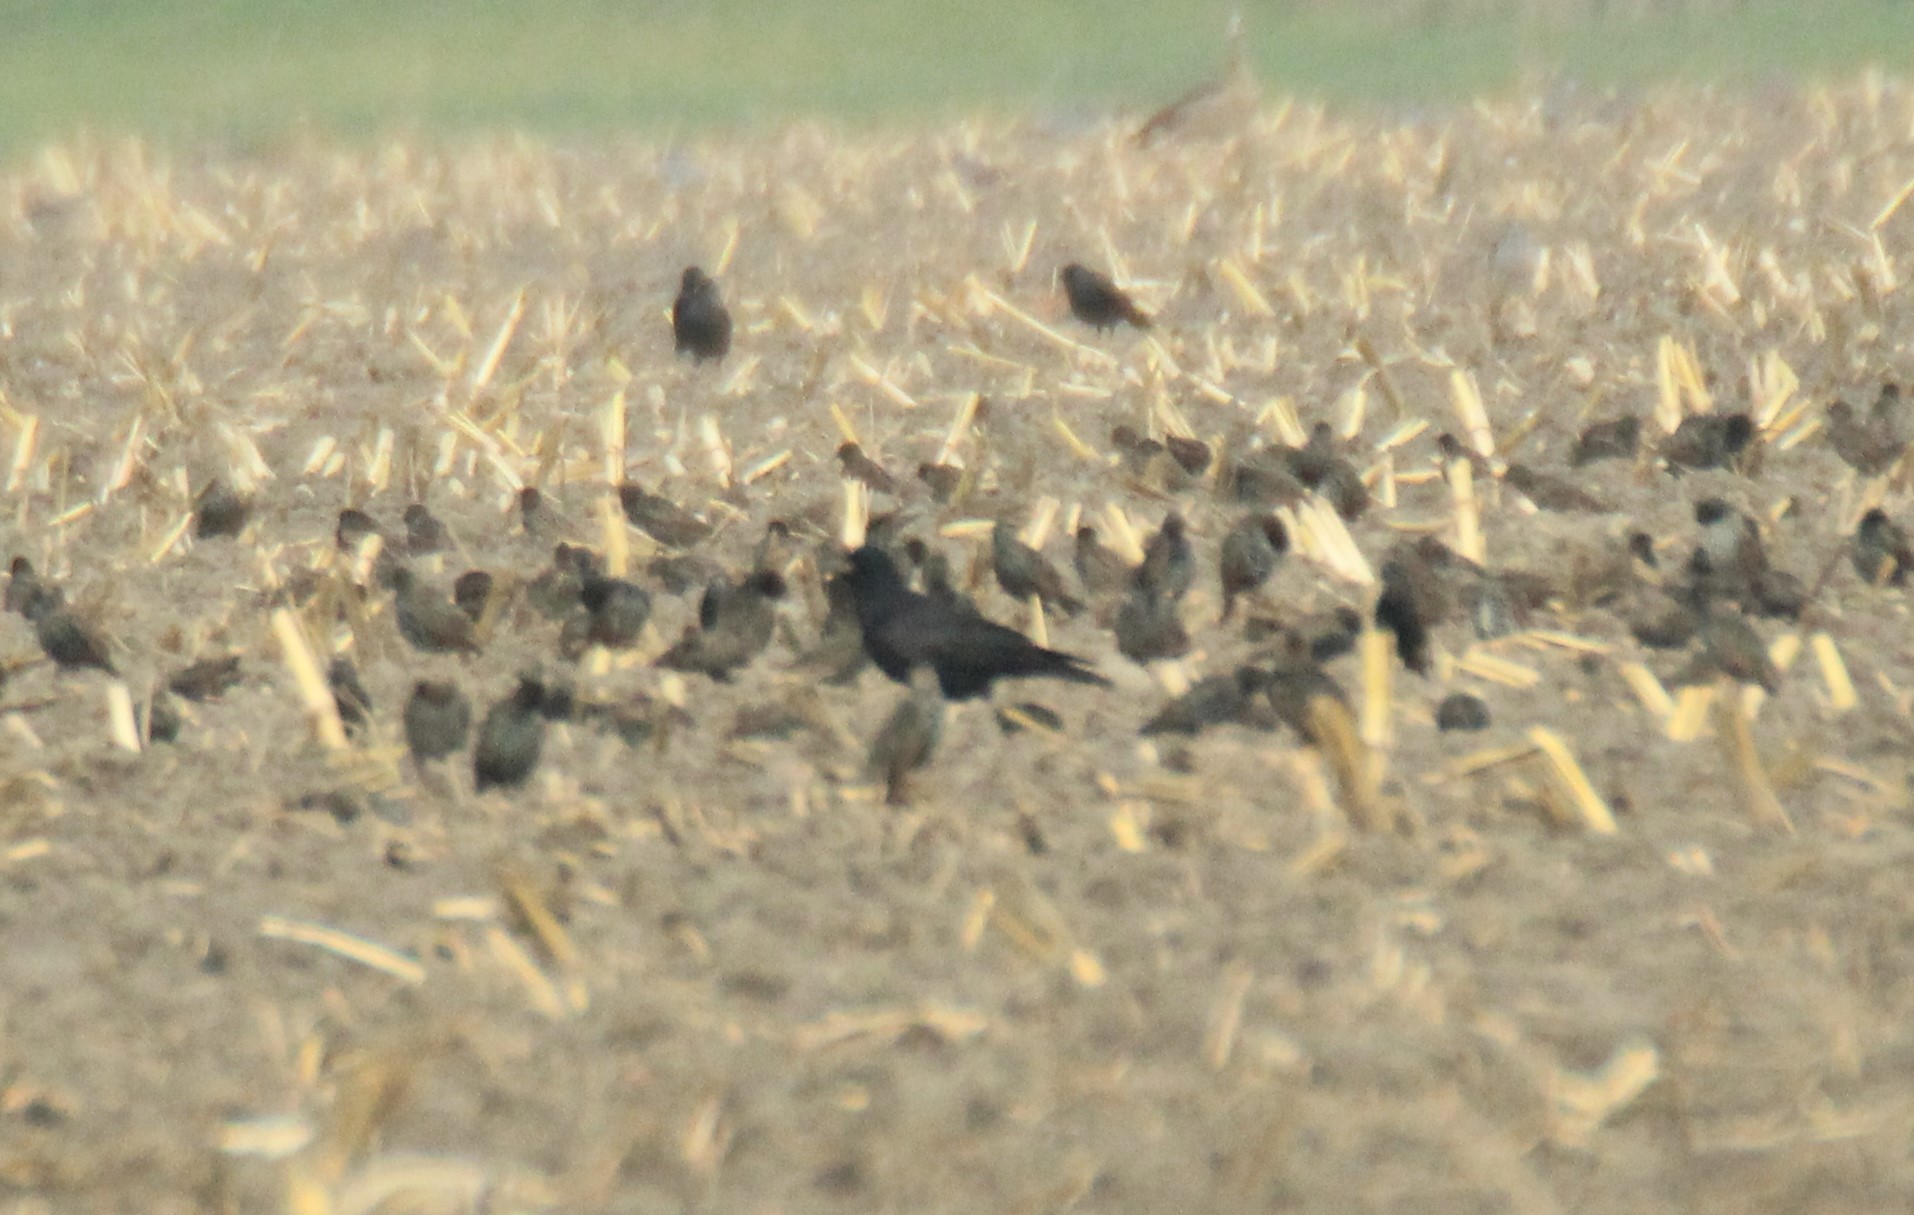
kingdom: Animalia
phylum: Chordata
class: Aves
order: Passeriformes
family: Corvidae
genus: Corvus
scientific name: Corvus corone
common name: Carrion crow
